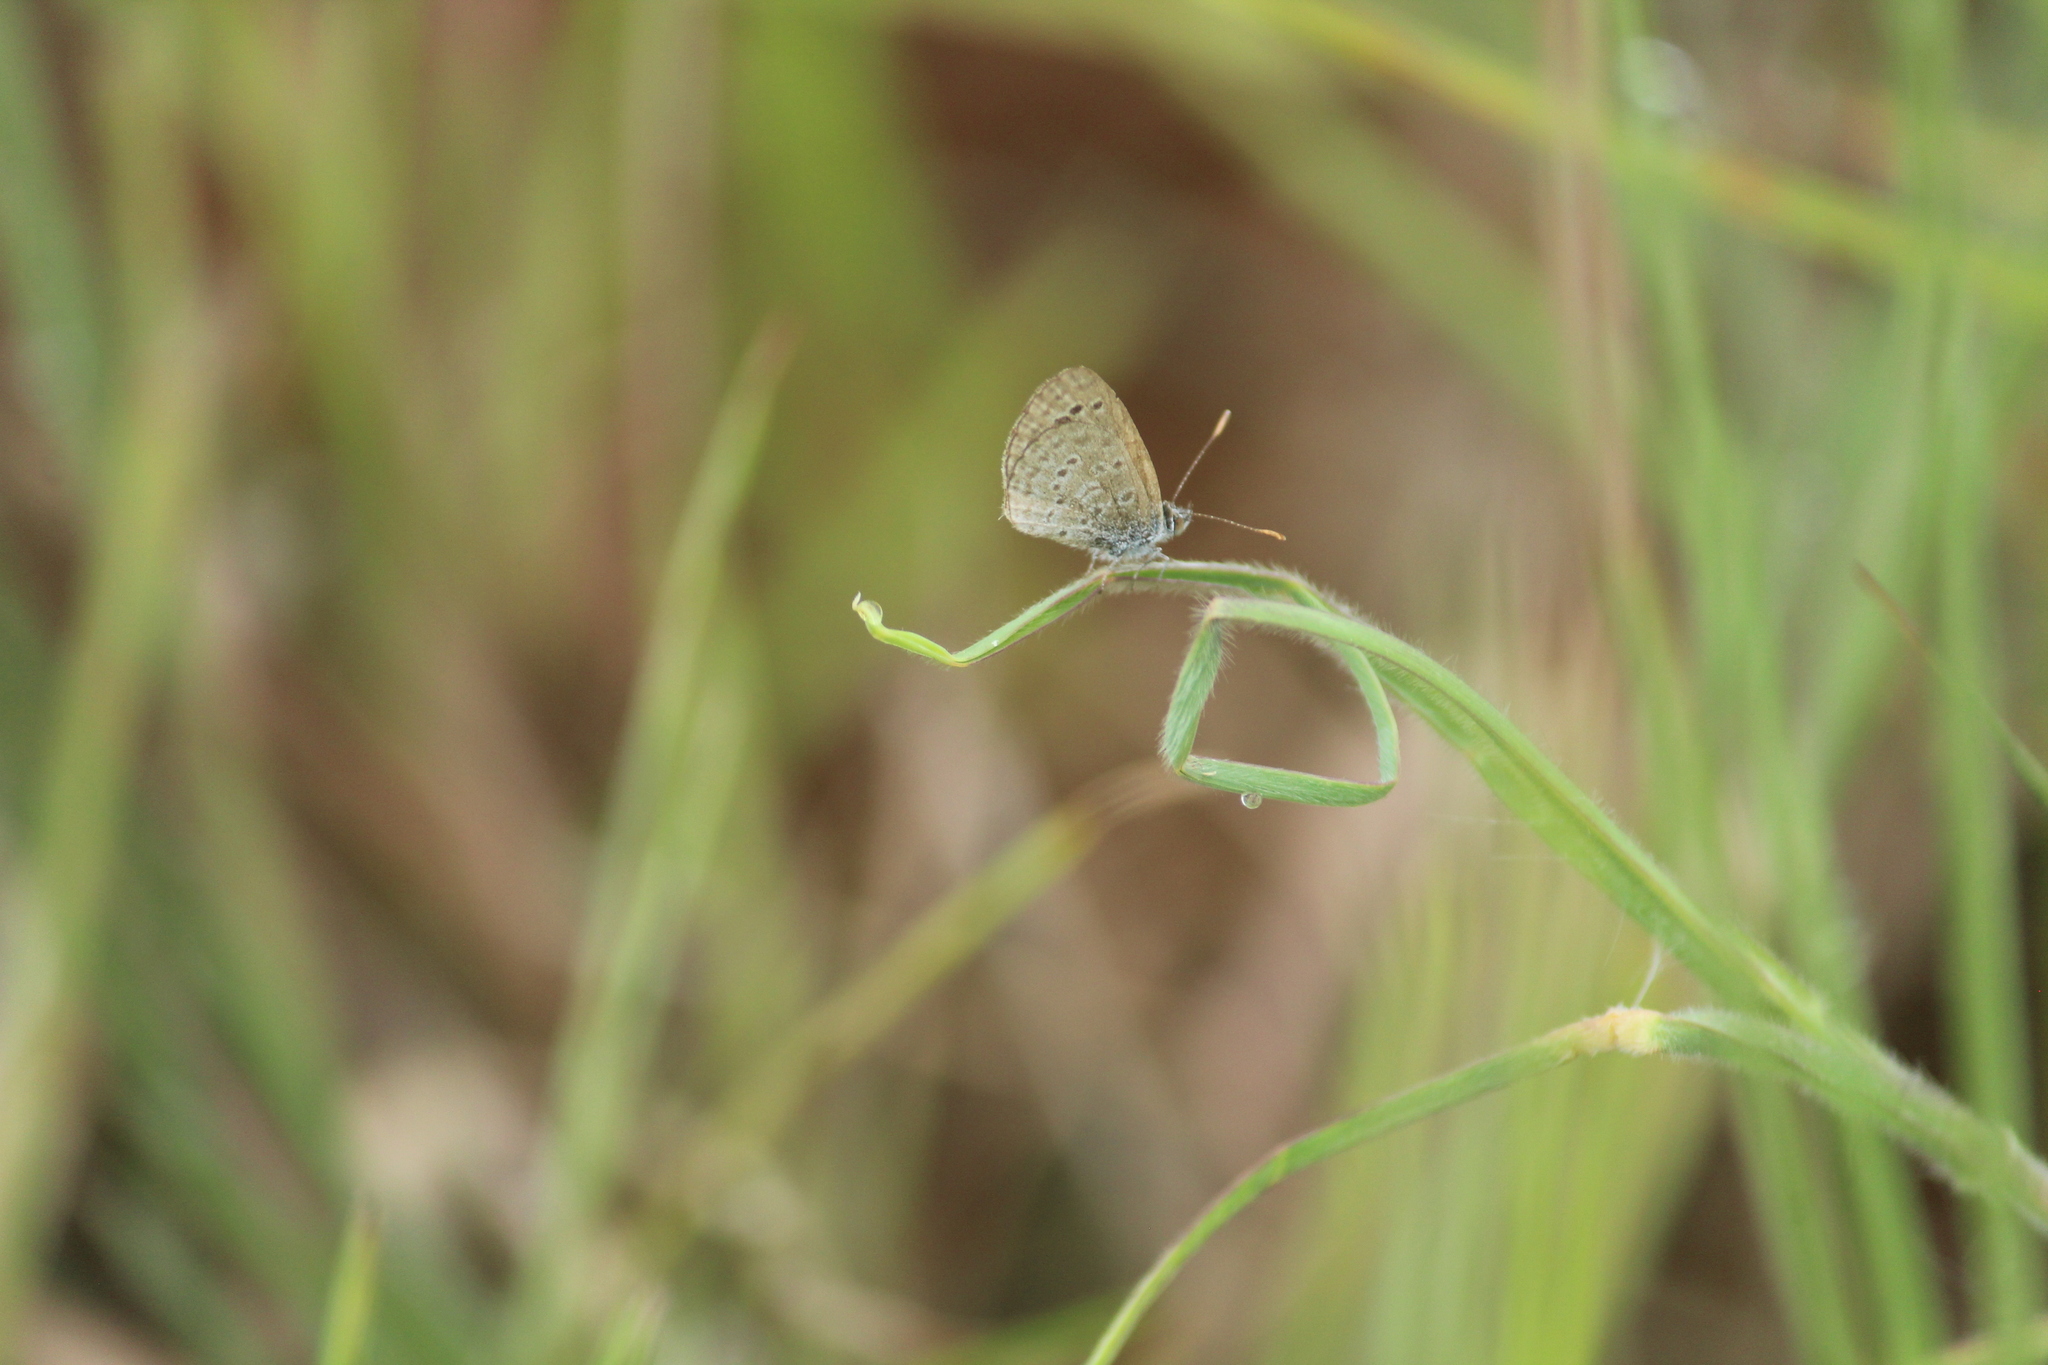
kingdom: Animalia
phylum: Arthropoda
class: Insecta
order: Lepidoptera
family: Lycaenidae
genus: Zizina
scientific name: Zizina otis
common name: Lesser grass blue
